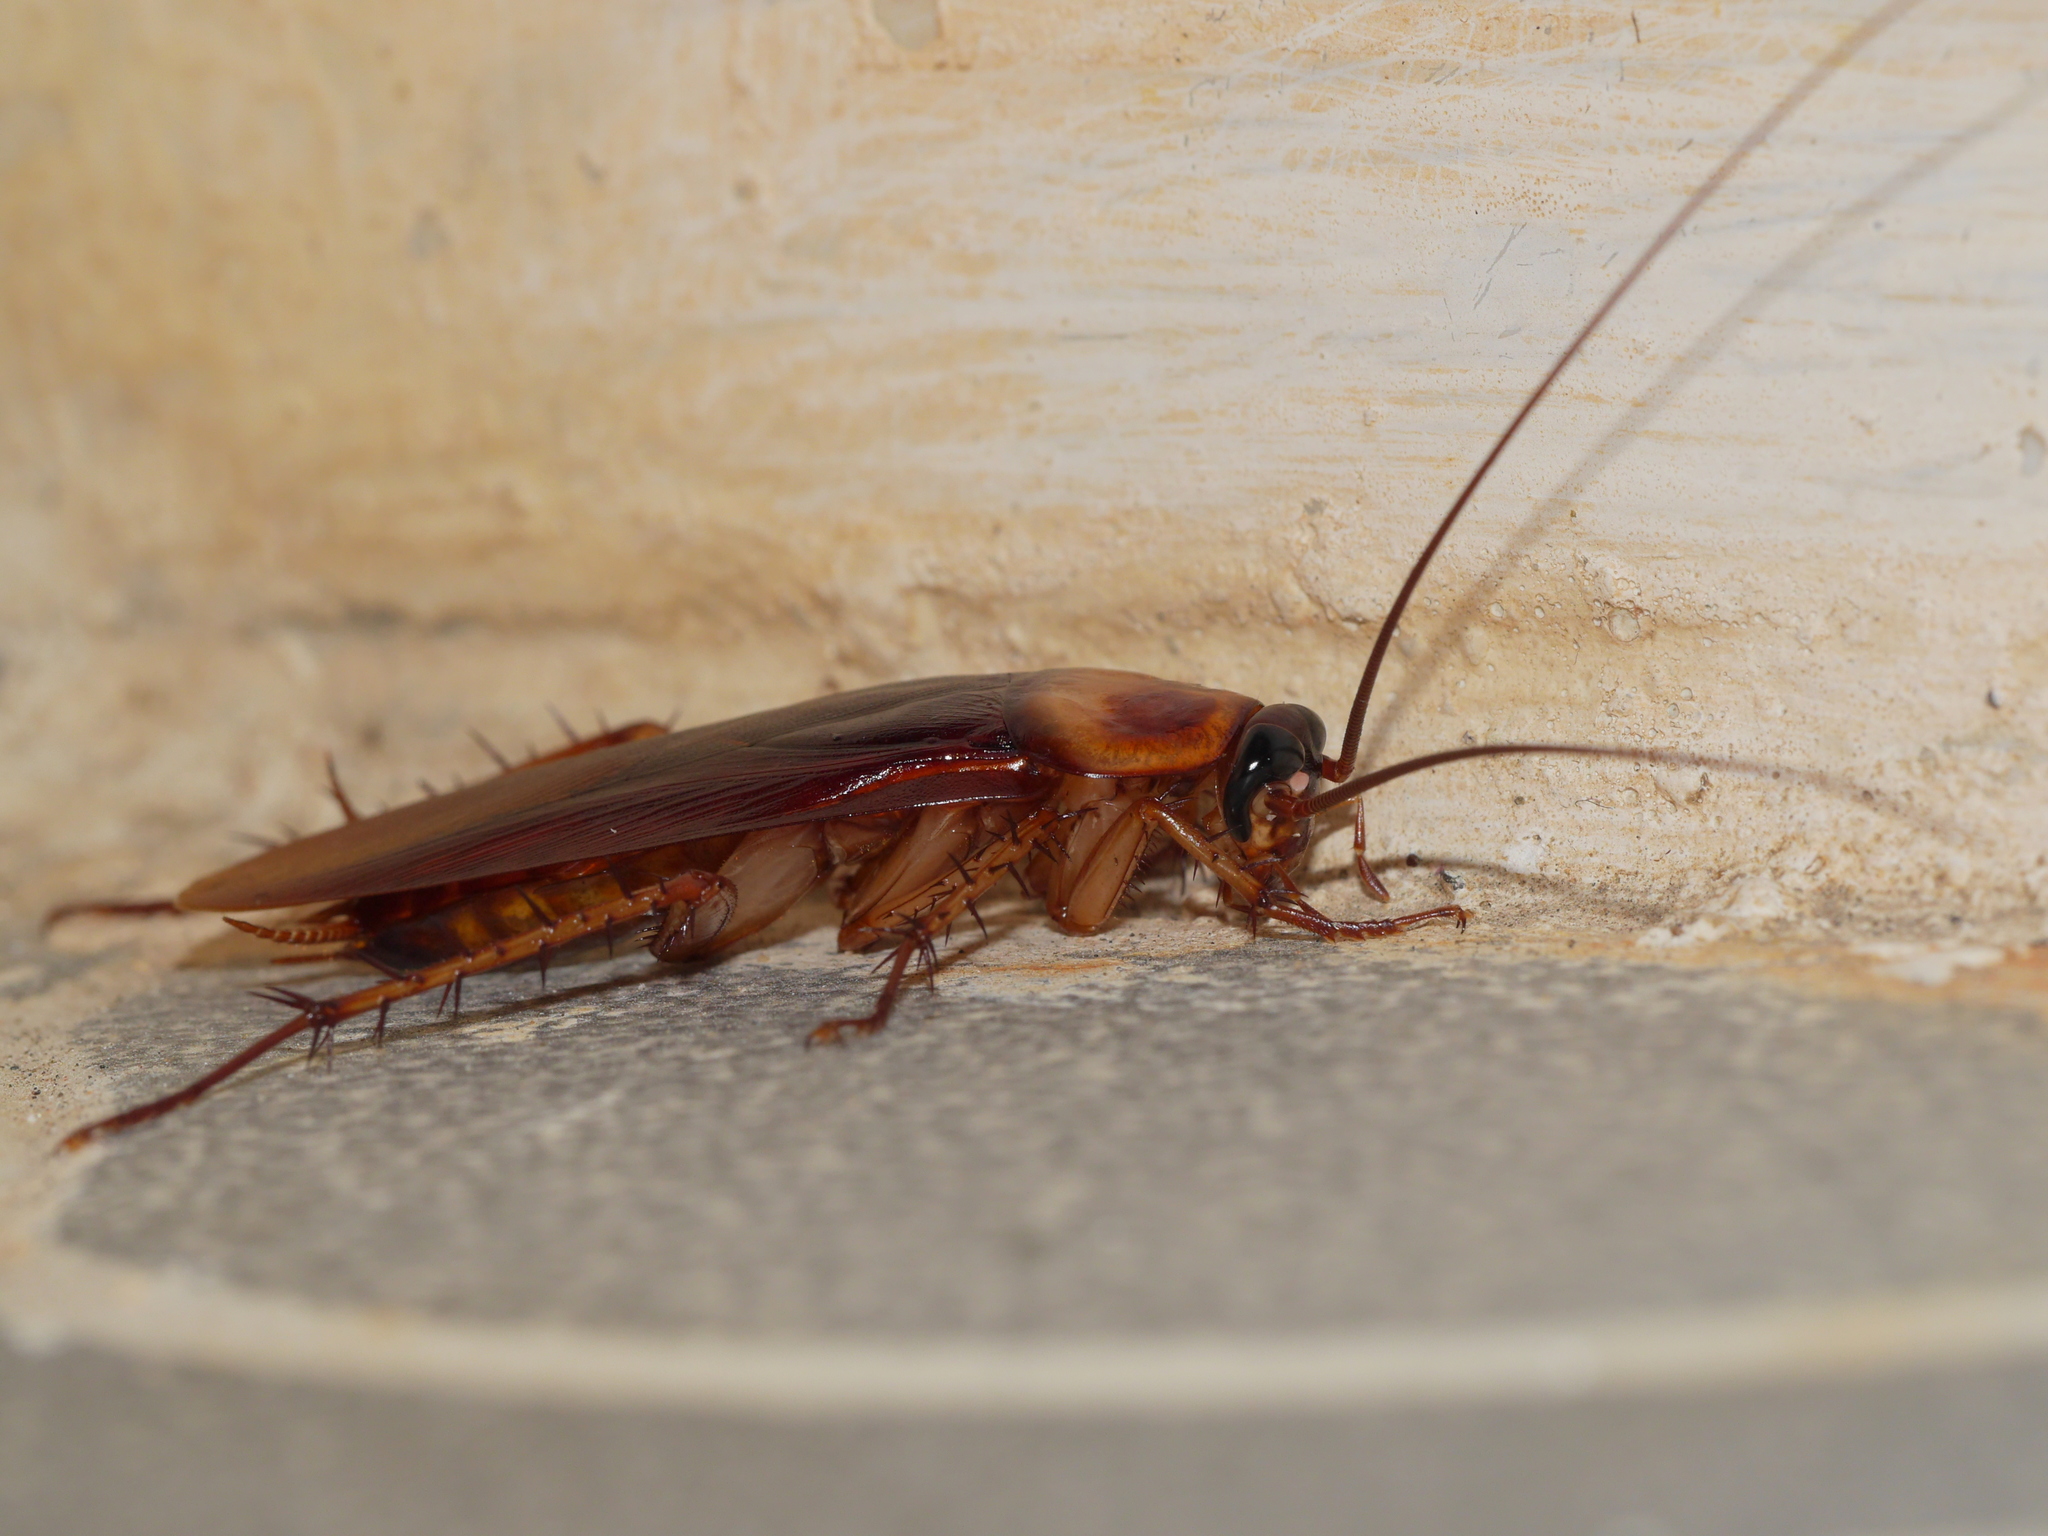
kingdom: Animalia
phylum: Arthropoda
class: Insecta
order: Blattodea
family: Blattidae
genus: Periplaneta
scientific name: Periplaneta americana
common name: American cockroach
